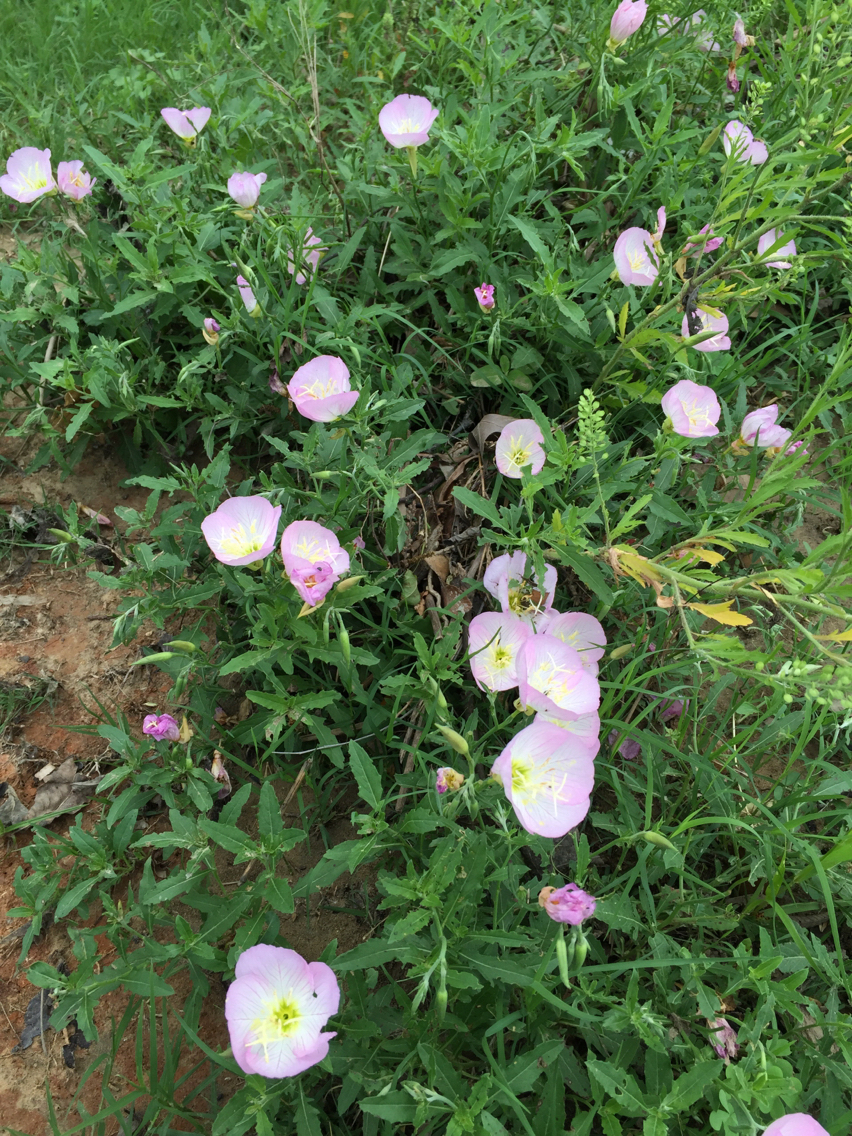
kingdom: Plantae
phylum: Tracheophyta
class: Magnoliopsida
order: Myrtales
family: Onagraceae
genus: Oenothera
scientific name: Oenothera speciosa
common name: White evening-primrose
